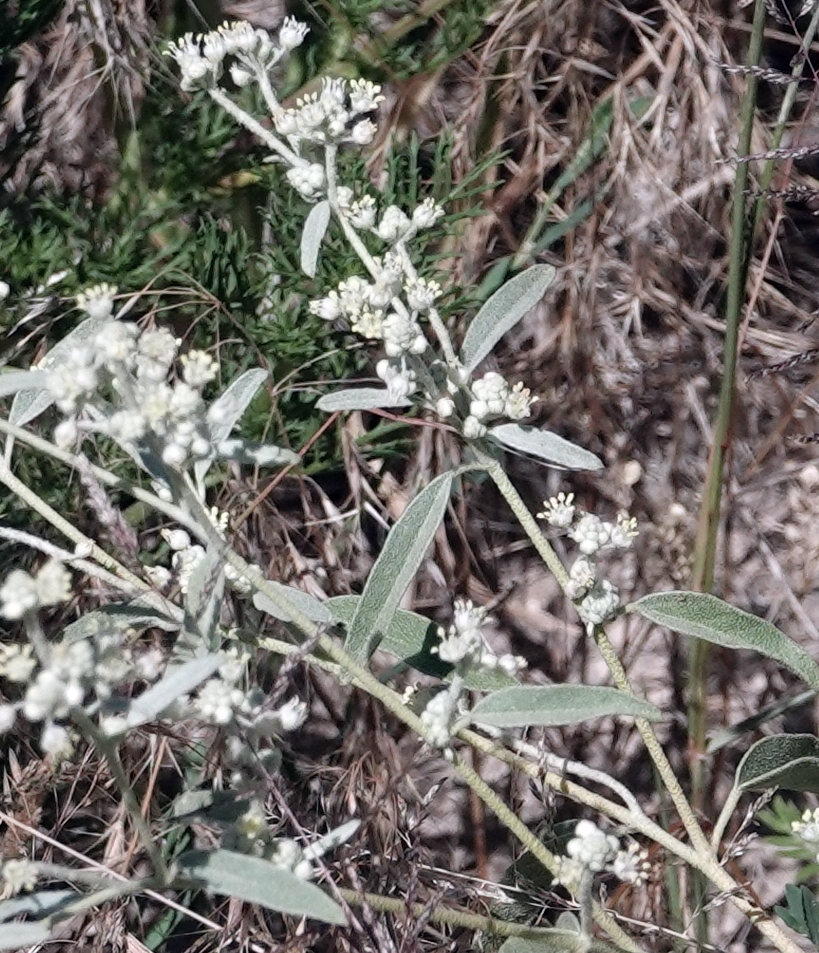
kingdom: Plantae
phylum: Tracheophyta
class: Magnoliopsida
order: Malpighiales
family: Euphorbiaceae
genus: Croton
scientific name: Croton texensis
